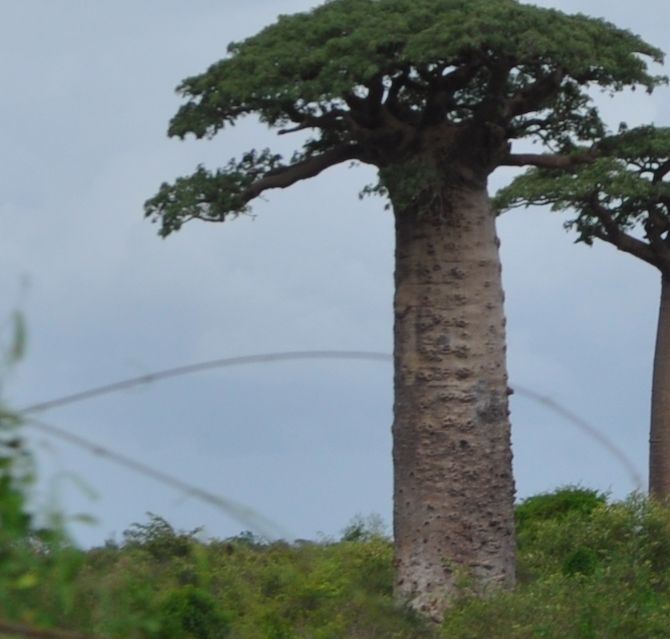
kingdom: Plantae
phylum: Tracheophyta
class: Magnoliopsida
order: Malvales
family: Malvaceae
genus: Adansonia
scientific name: Adansonia grandidieri
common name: Grandidier's baobab
